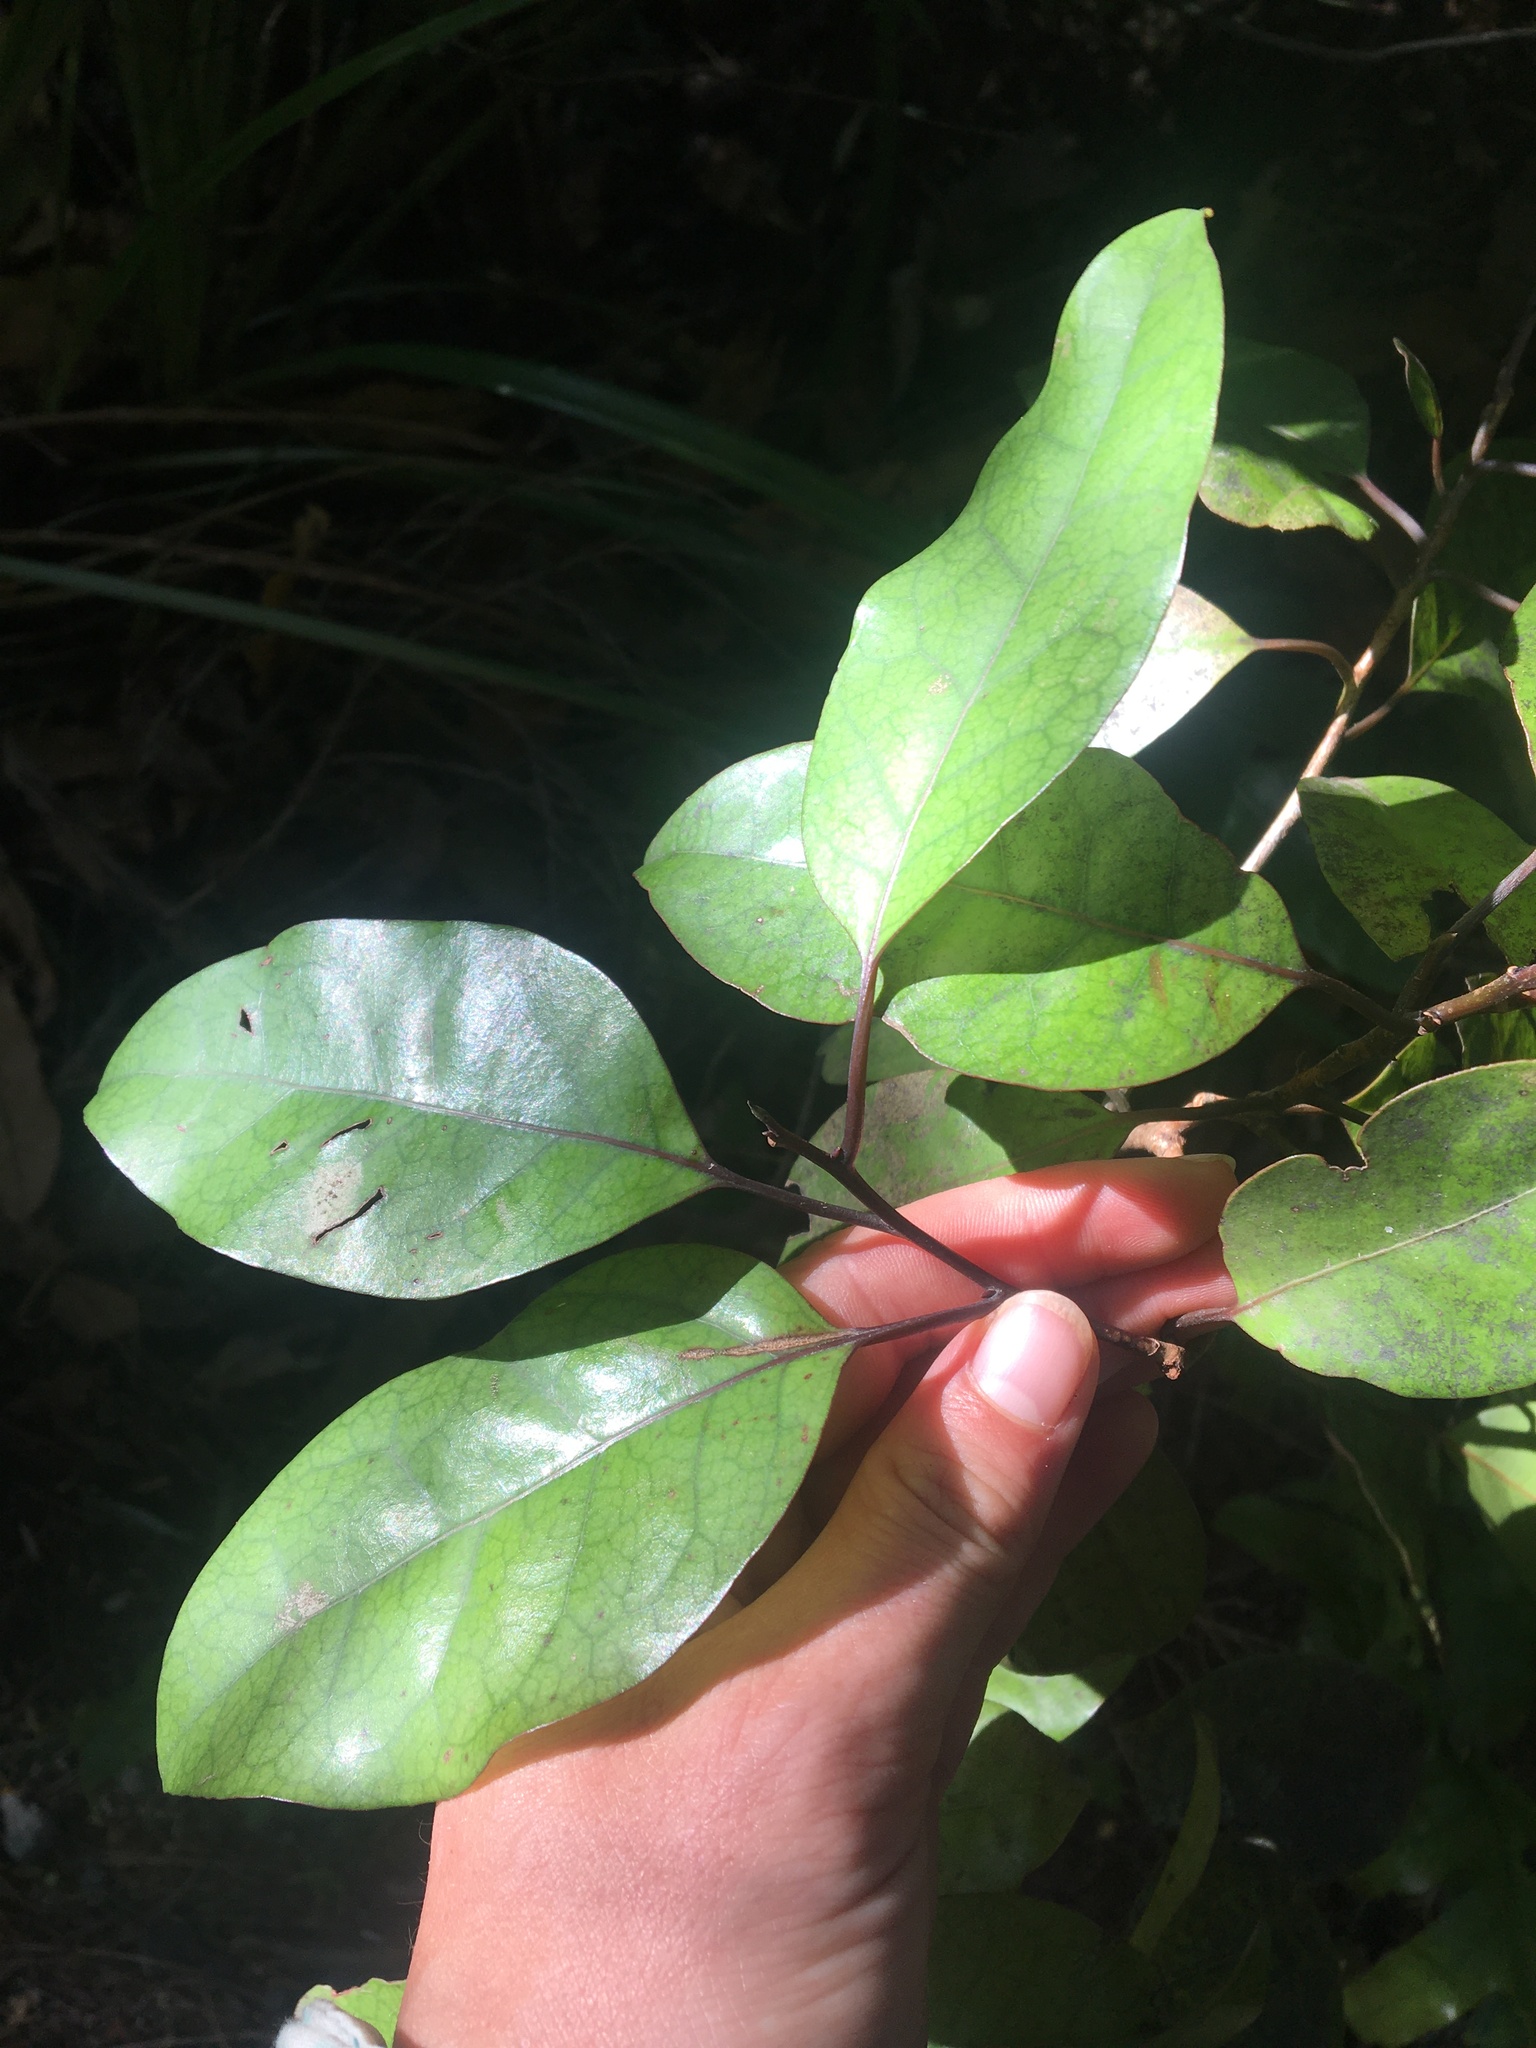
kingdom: Plantae
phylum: Tracheophyta
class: Magnoliopsida
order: Laurales
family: Lauraceae
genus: Litsea
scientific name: Litsea calicaris
